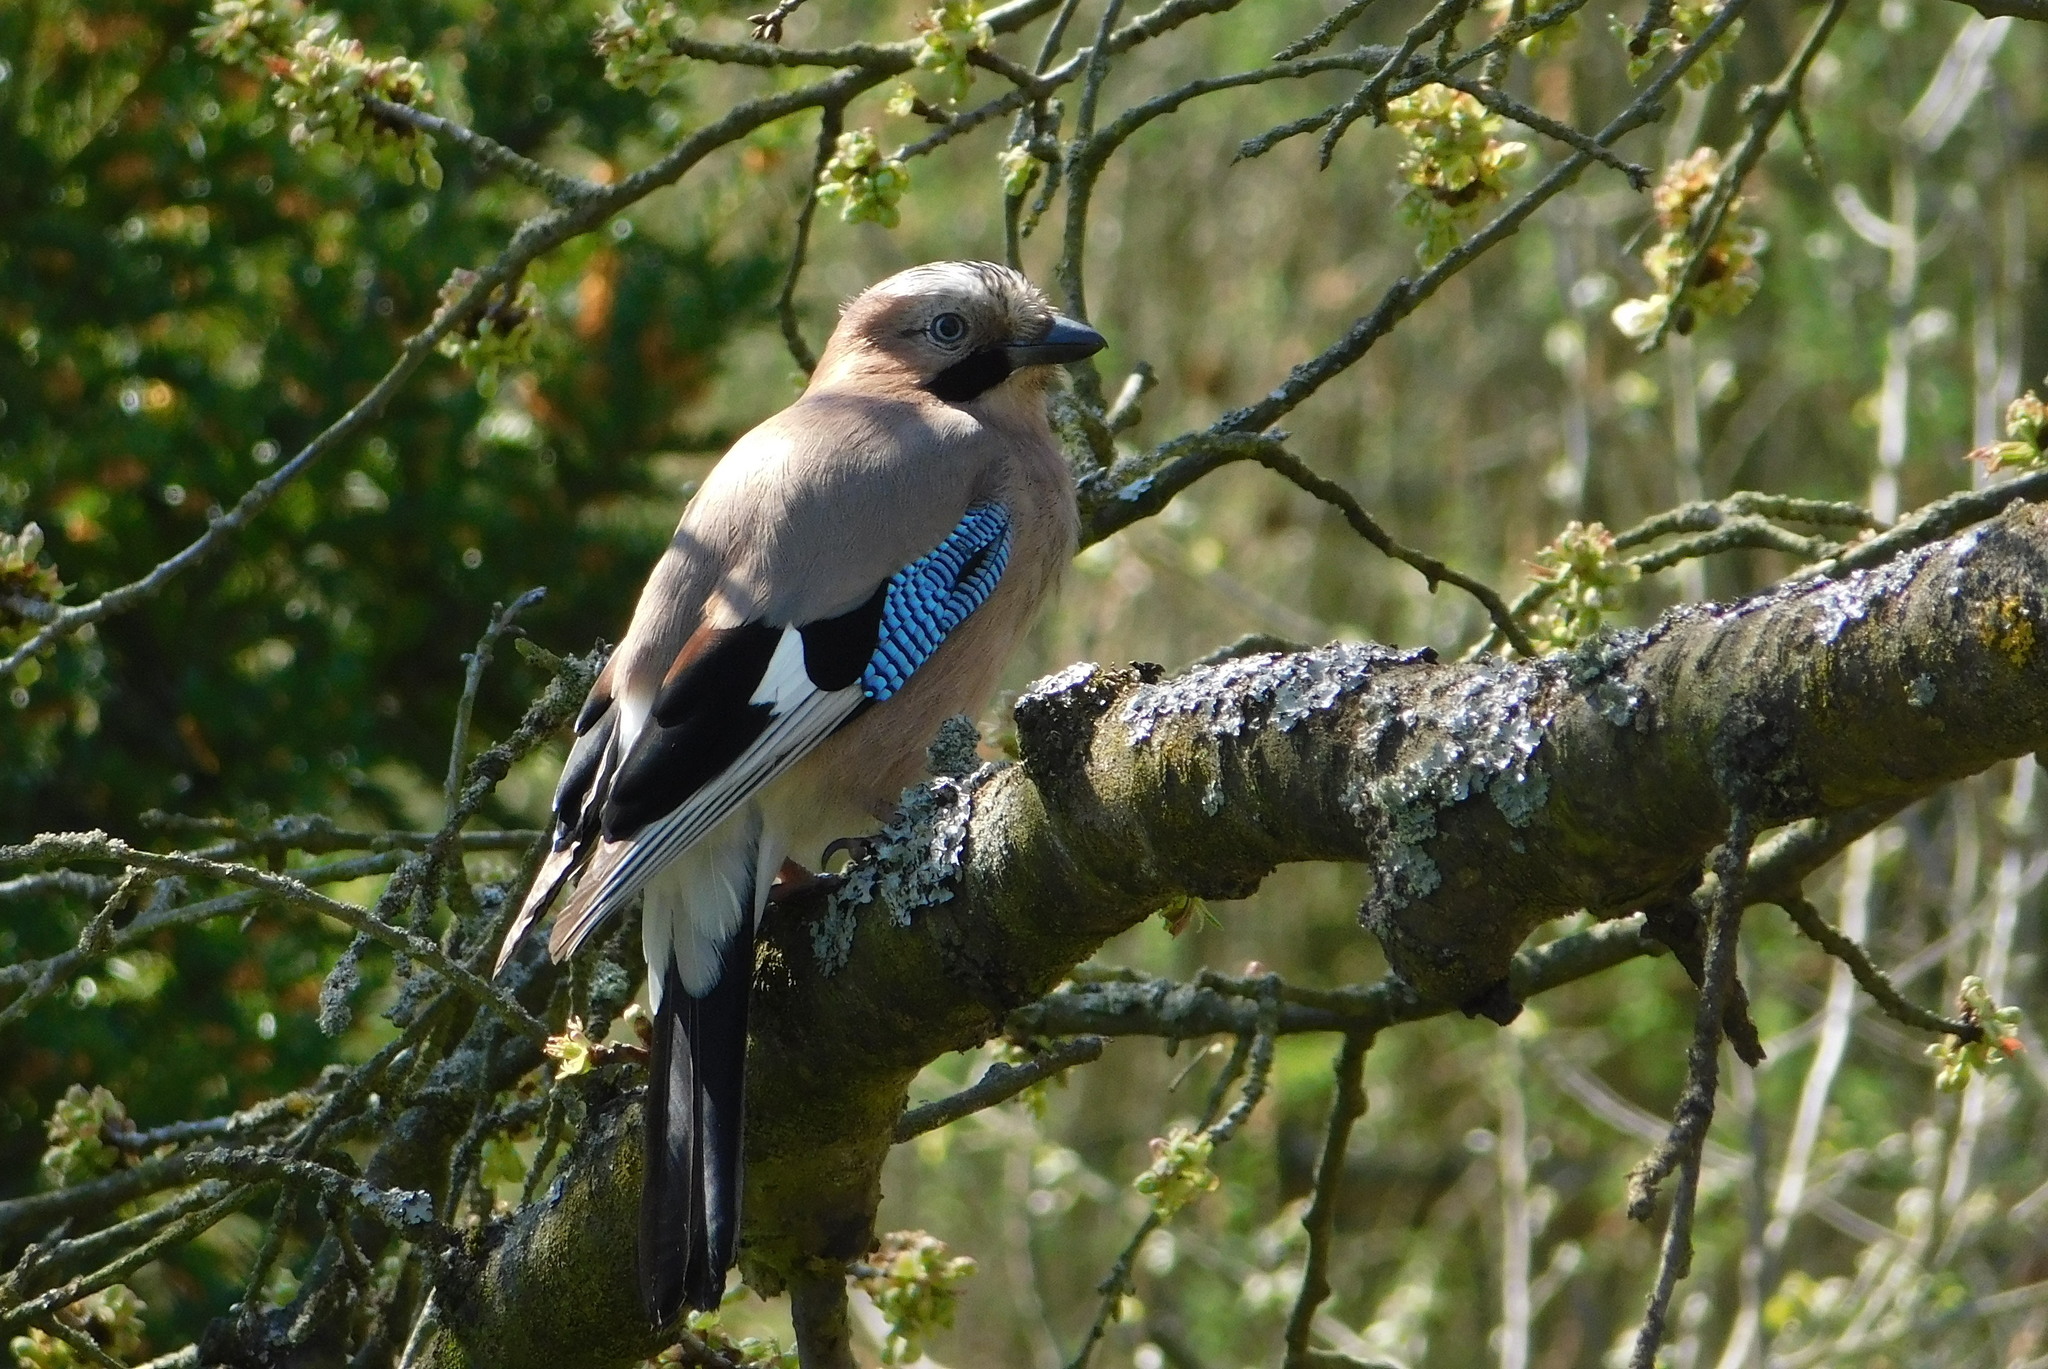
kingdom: Animalia
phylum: Chordata
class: Aves
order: Passeriformes
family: Corvidae
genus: Garrulus
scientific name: Garrulus glandarius
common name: Eurasian jay
